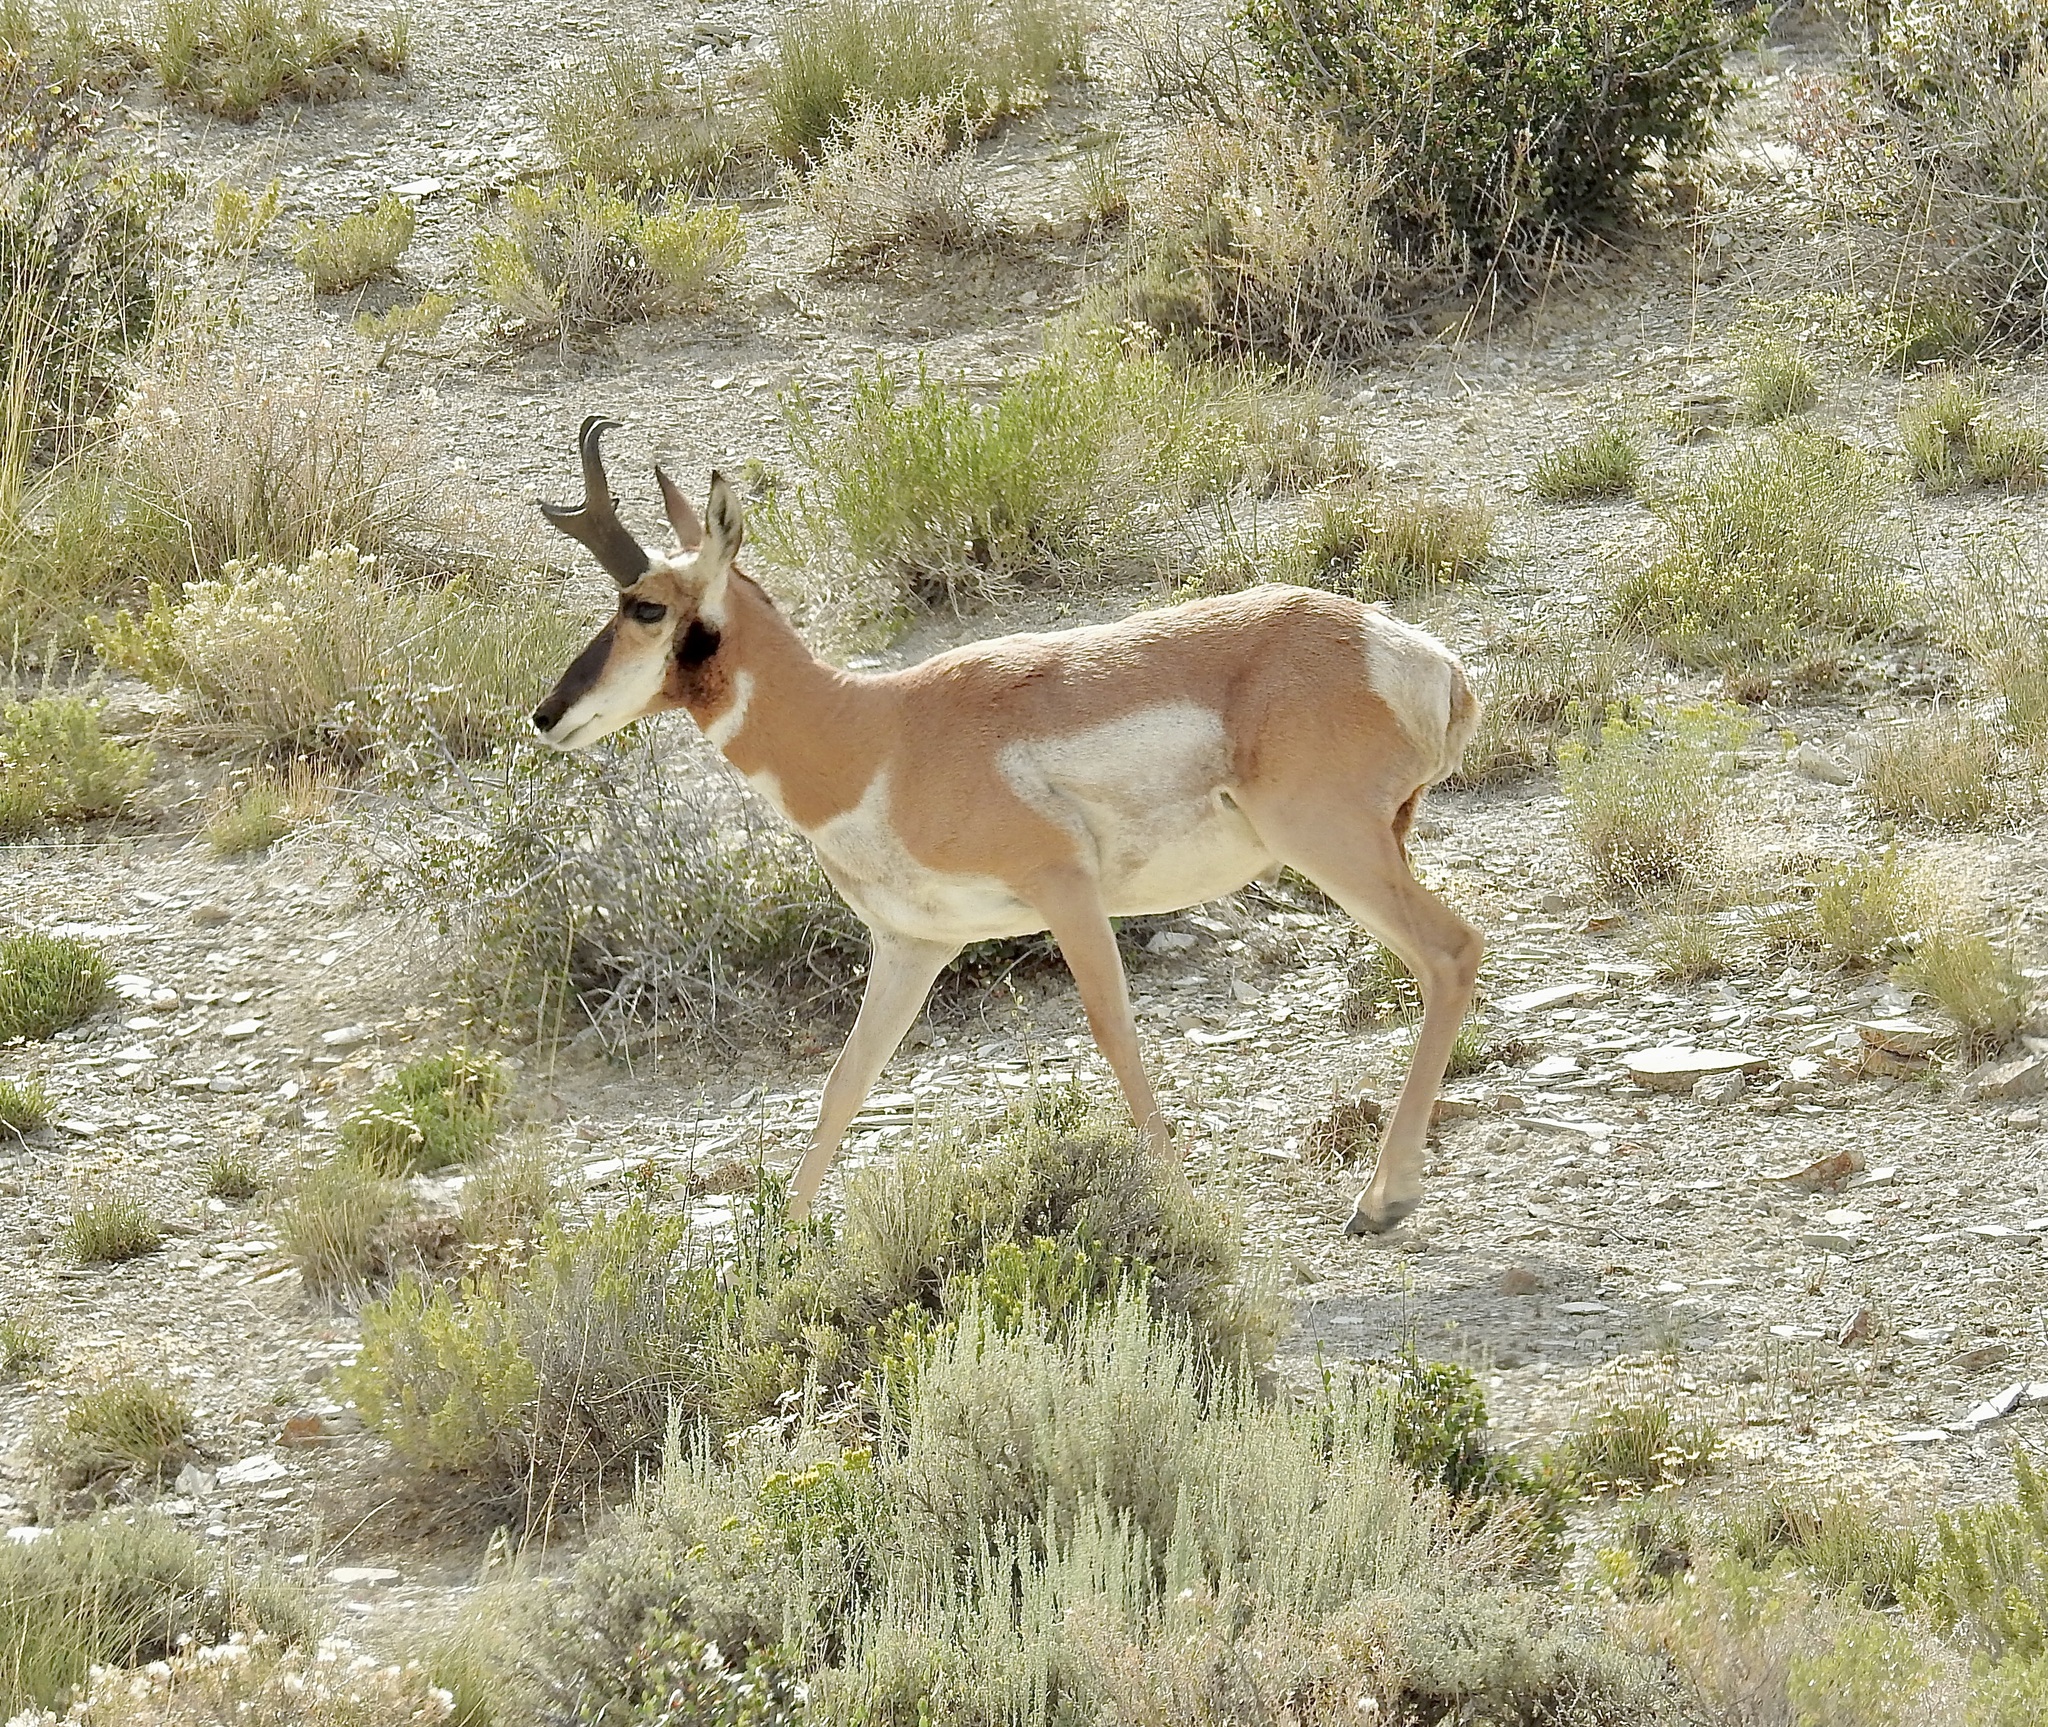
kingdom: Animalia
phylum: Chordata
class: Mammalia
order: Artiodactyla
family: Antilocapridae
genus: Antilocapra
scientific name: Antilocapra americana
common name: Pronghorn
